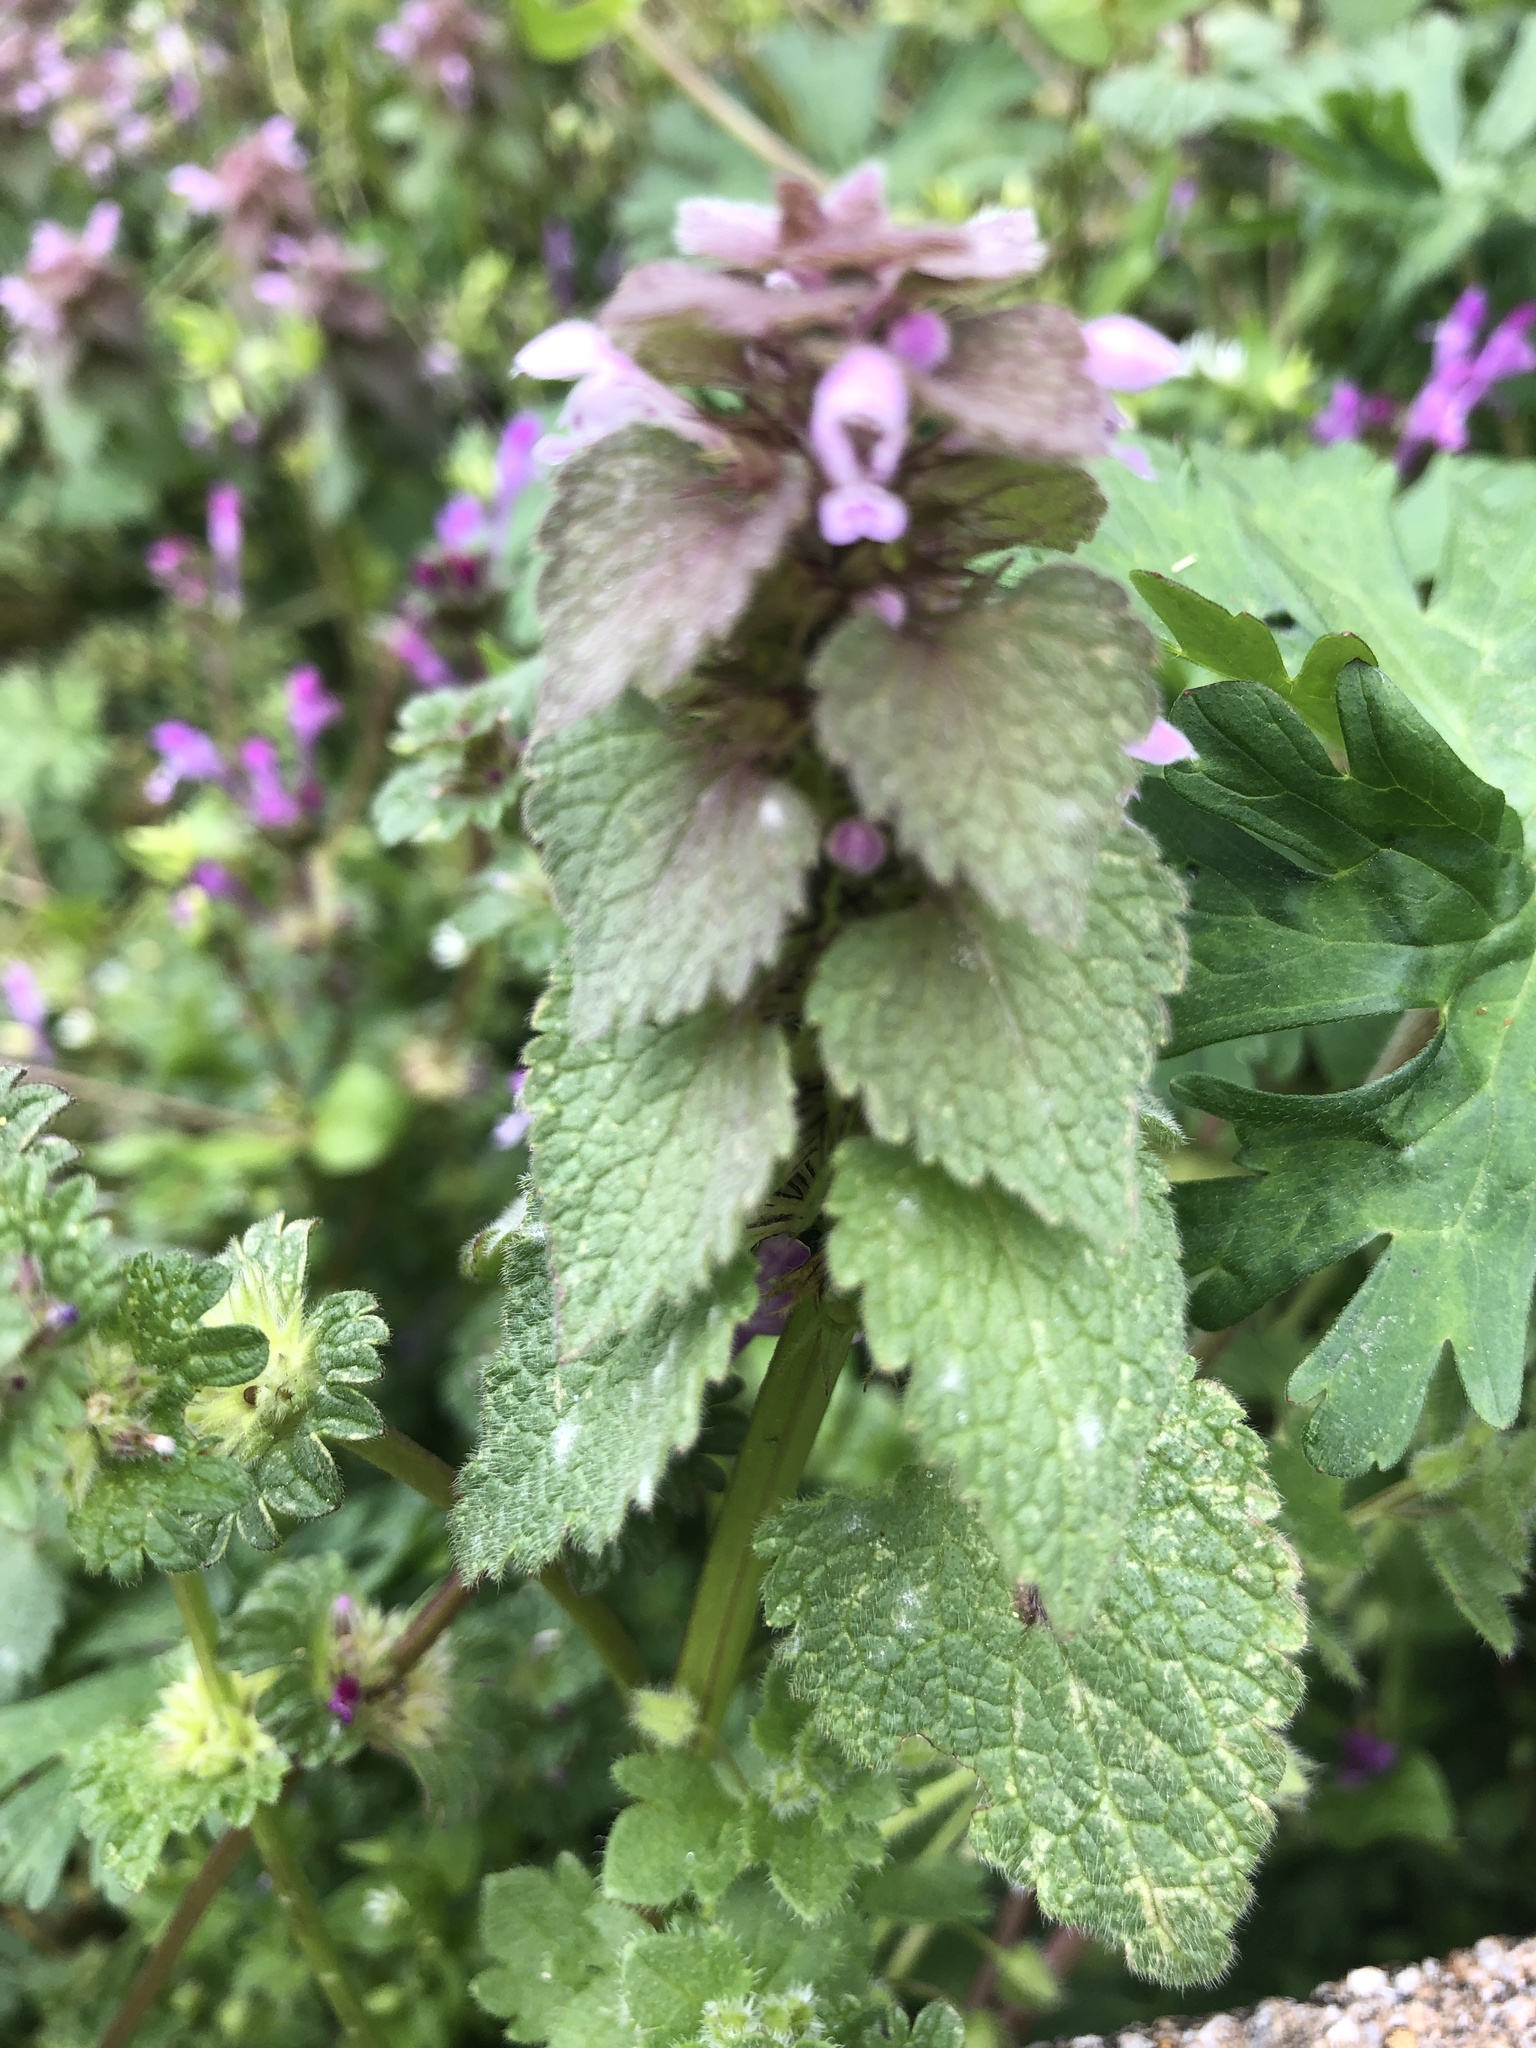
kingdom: Plantae
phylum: Tracheophyta
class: Magnoliopsida
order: Lamiales
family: Lamiaceae
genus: Lamium
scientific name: Lamium purpureum
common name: Red dead-nettle
